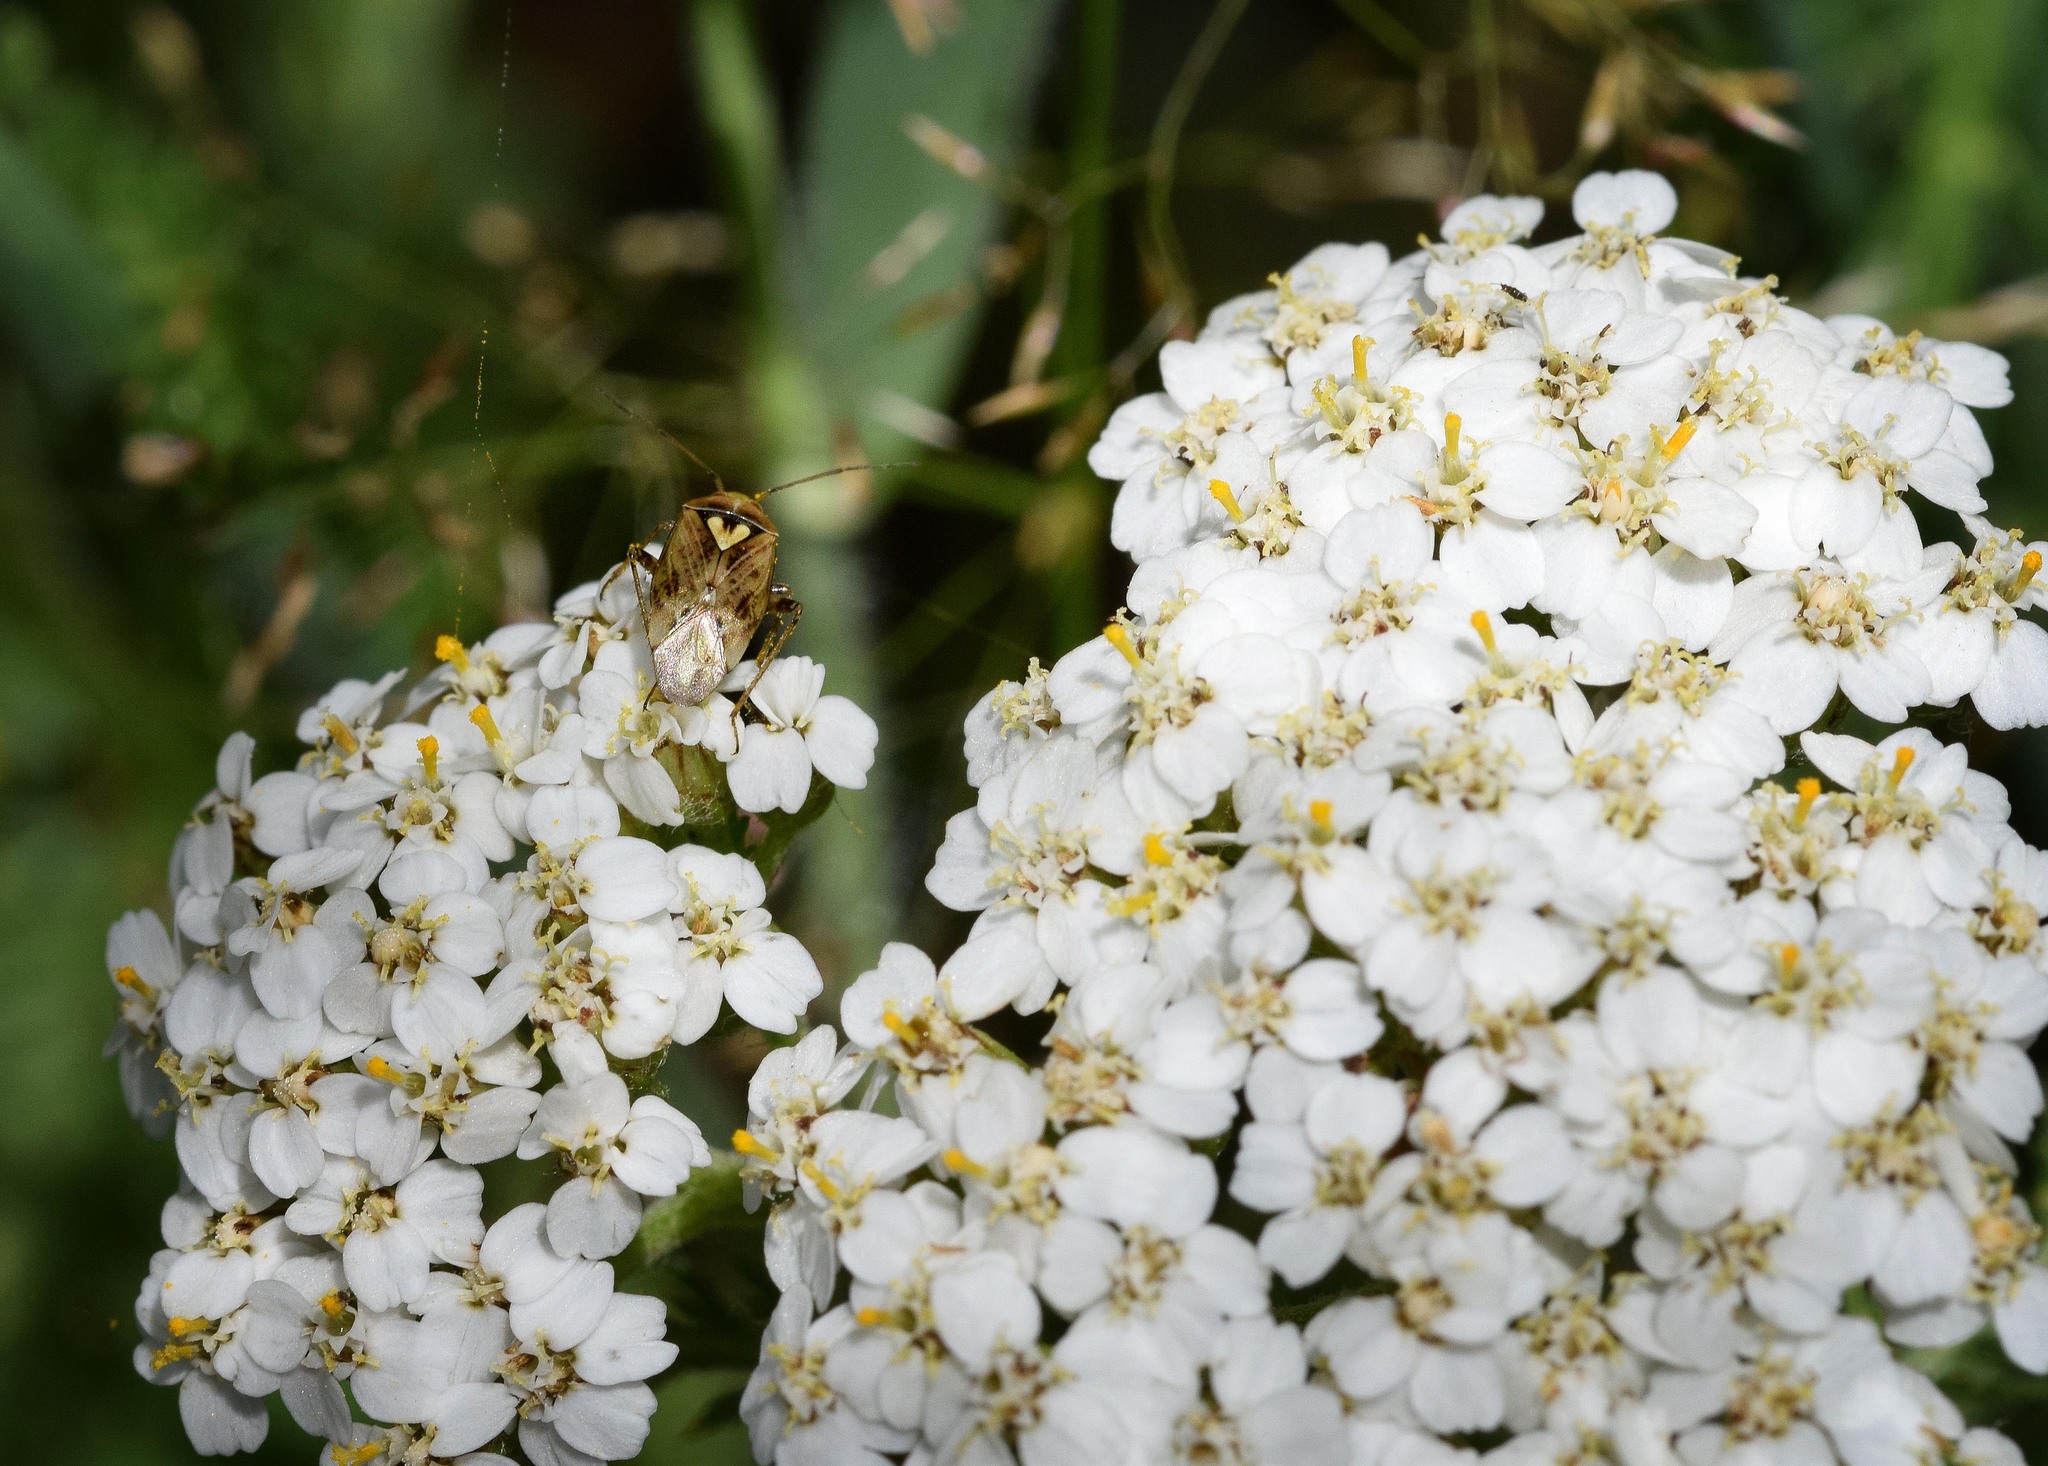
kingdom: Animalia
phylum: Arthropoda
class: Insecta
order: Hemiptera
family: Miridae
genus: Lygus
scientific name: Lygus rugulipennis
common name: European tarnished plant bug
